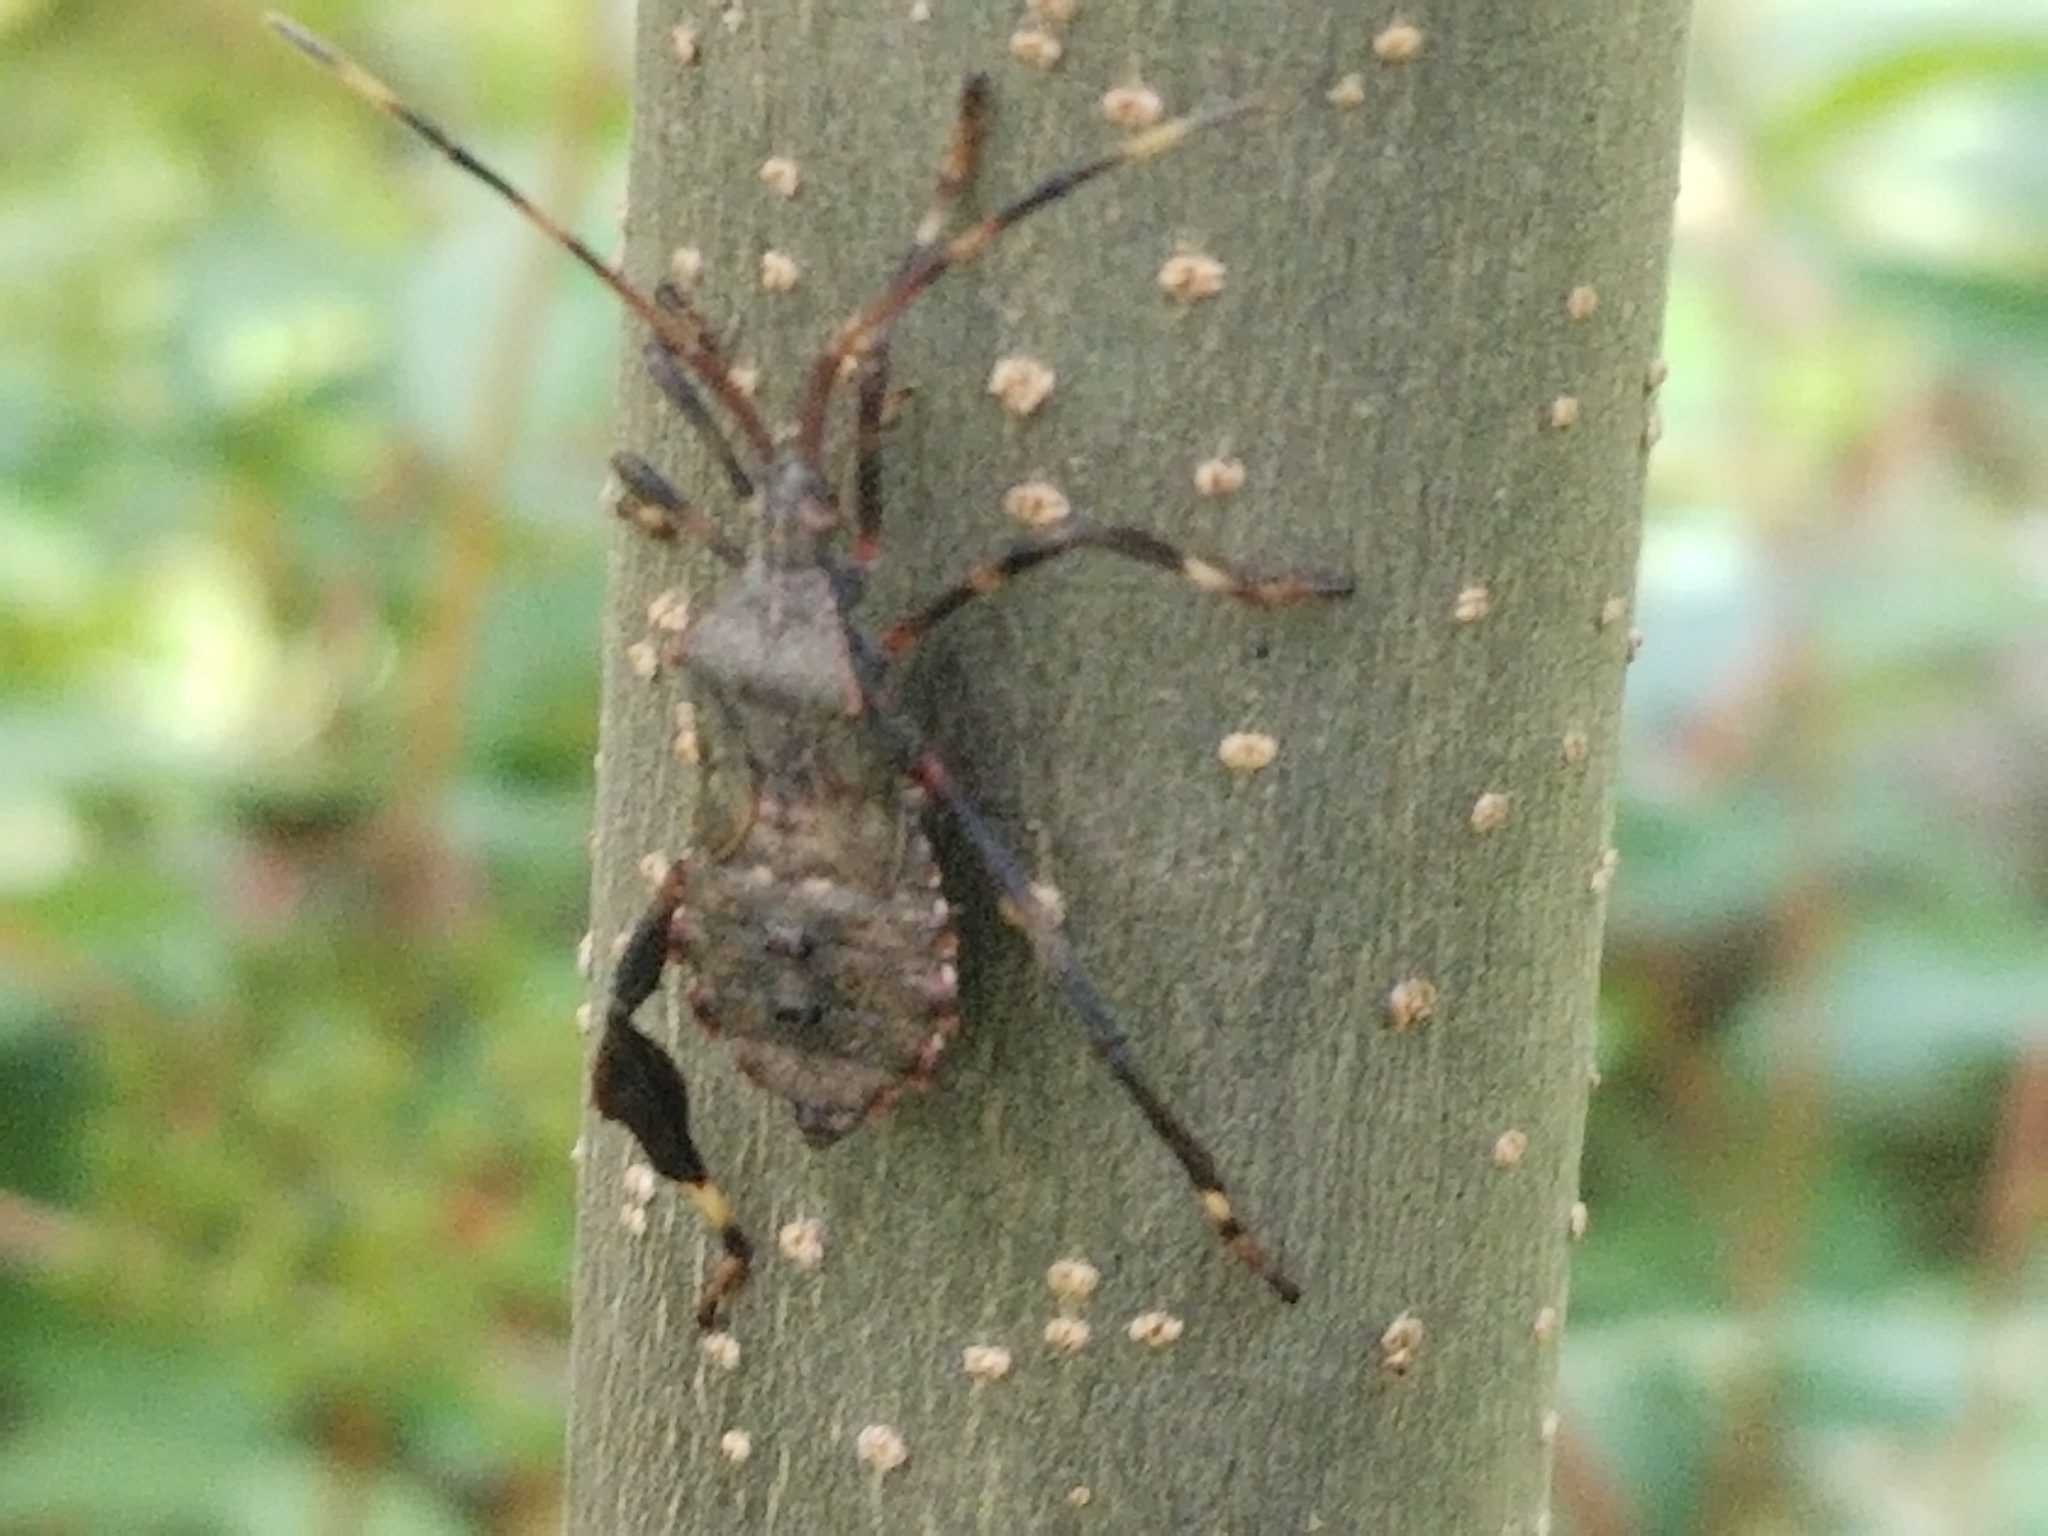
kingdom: Animalia
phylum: Arthropoda
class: Insecta
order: Hemiptera
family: Coreidae
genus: Acanthocephala
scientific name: Acanthocephala terminalis
